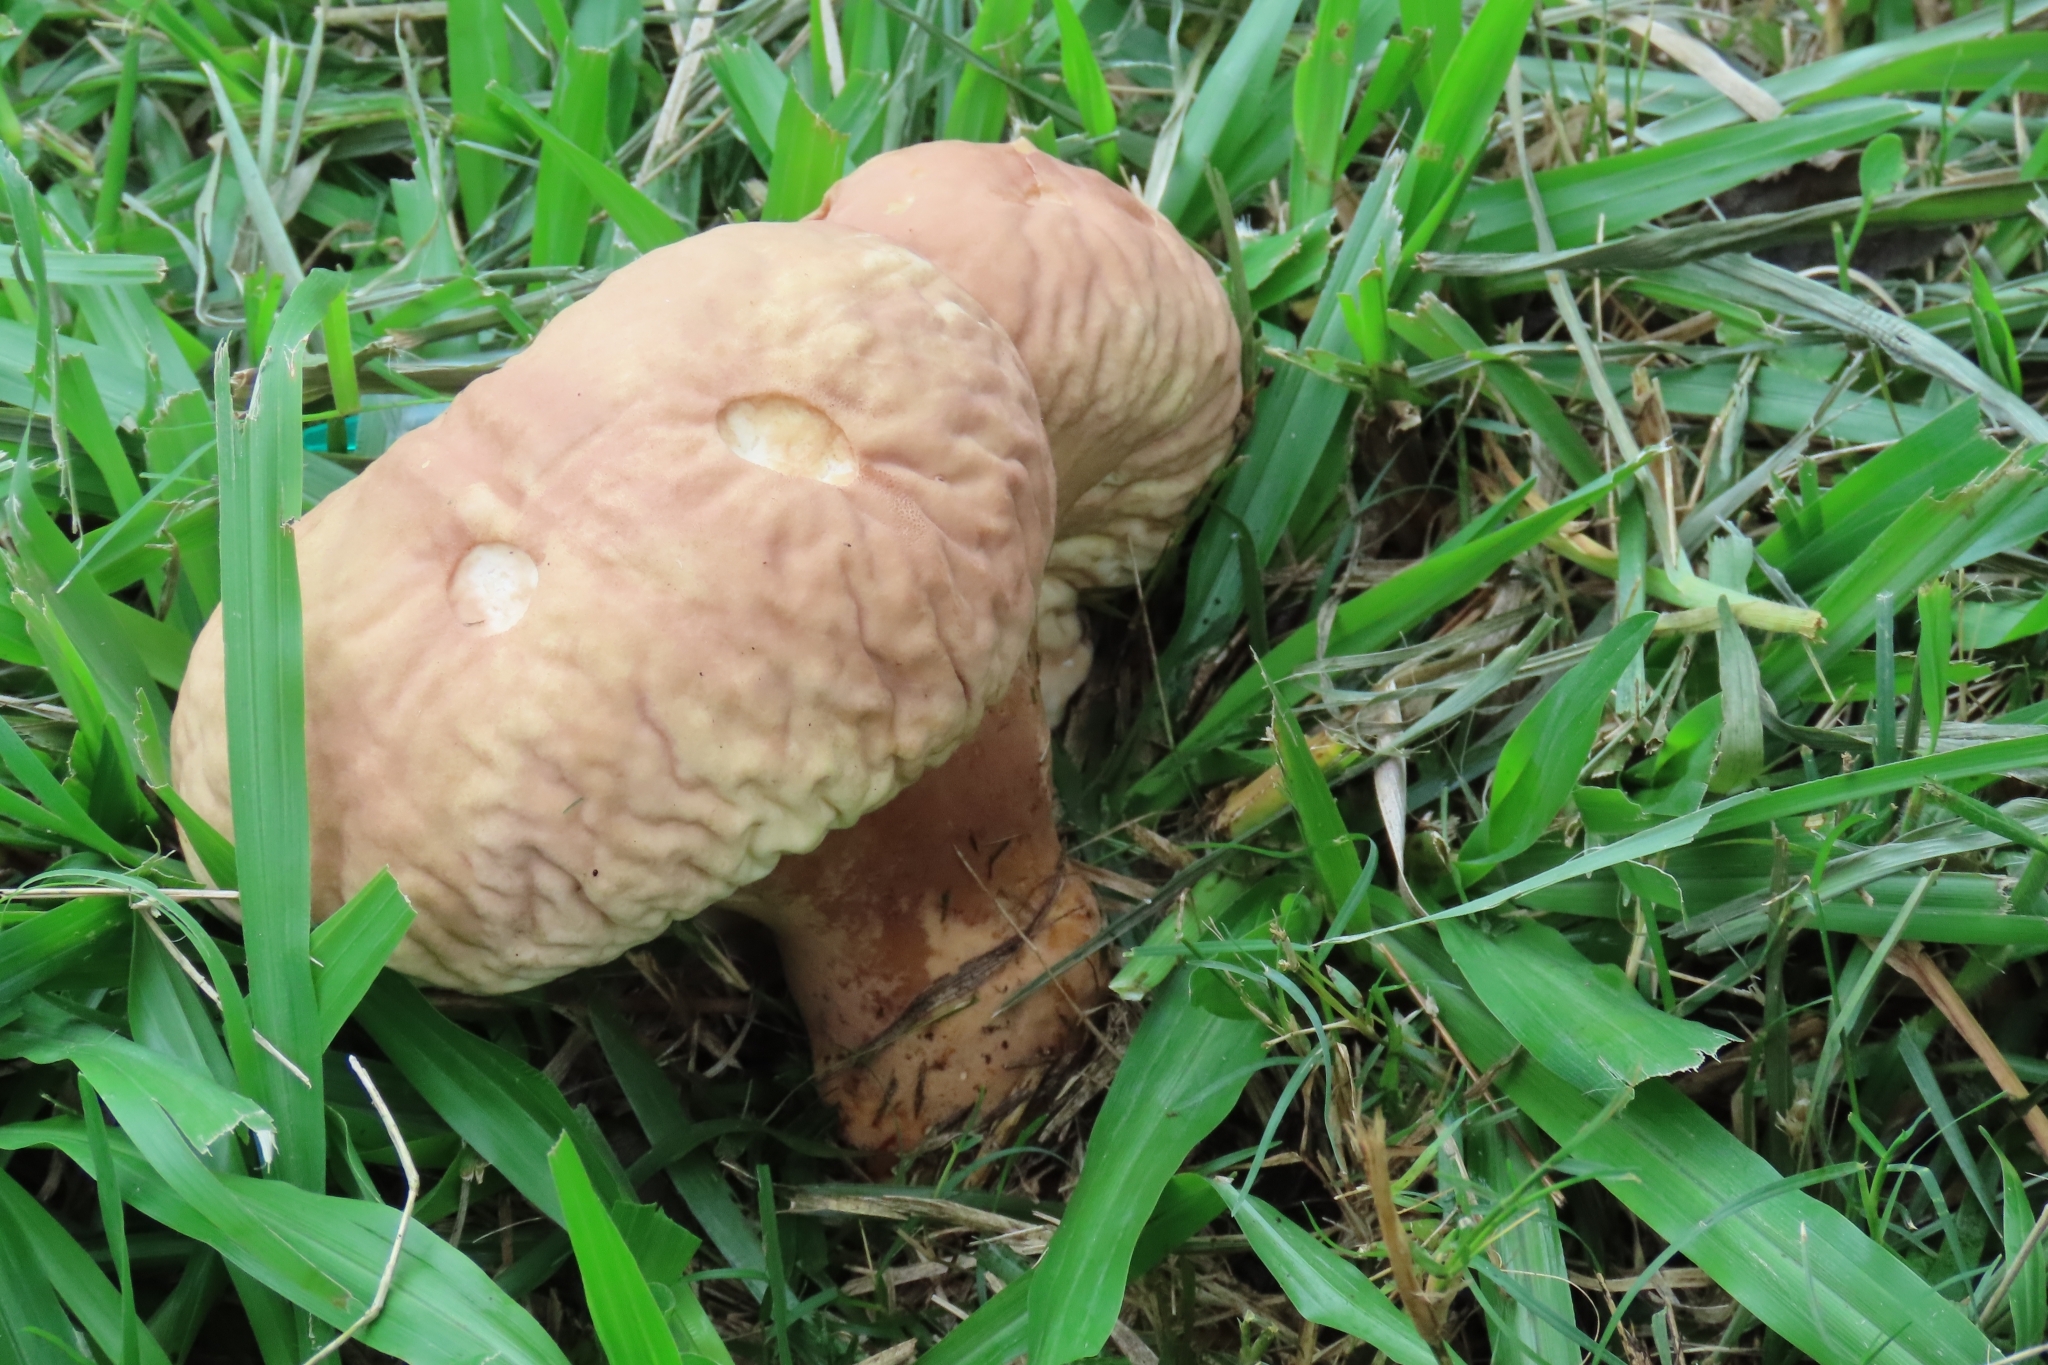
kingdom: Fungi
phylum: Basidiomycota
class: Agaricomycetes
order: Agaricales
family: Lycoperdaceae
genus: Calvatia
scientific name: Calvatia rugosa
